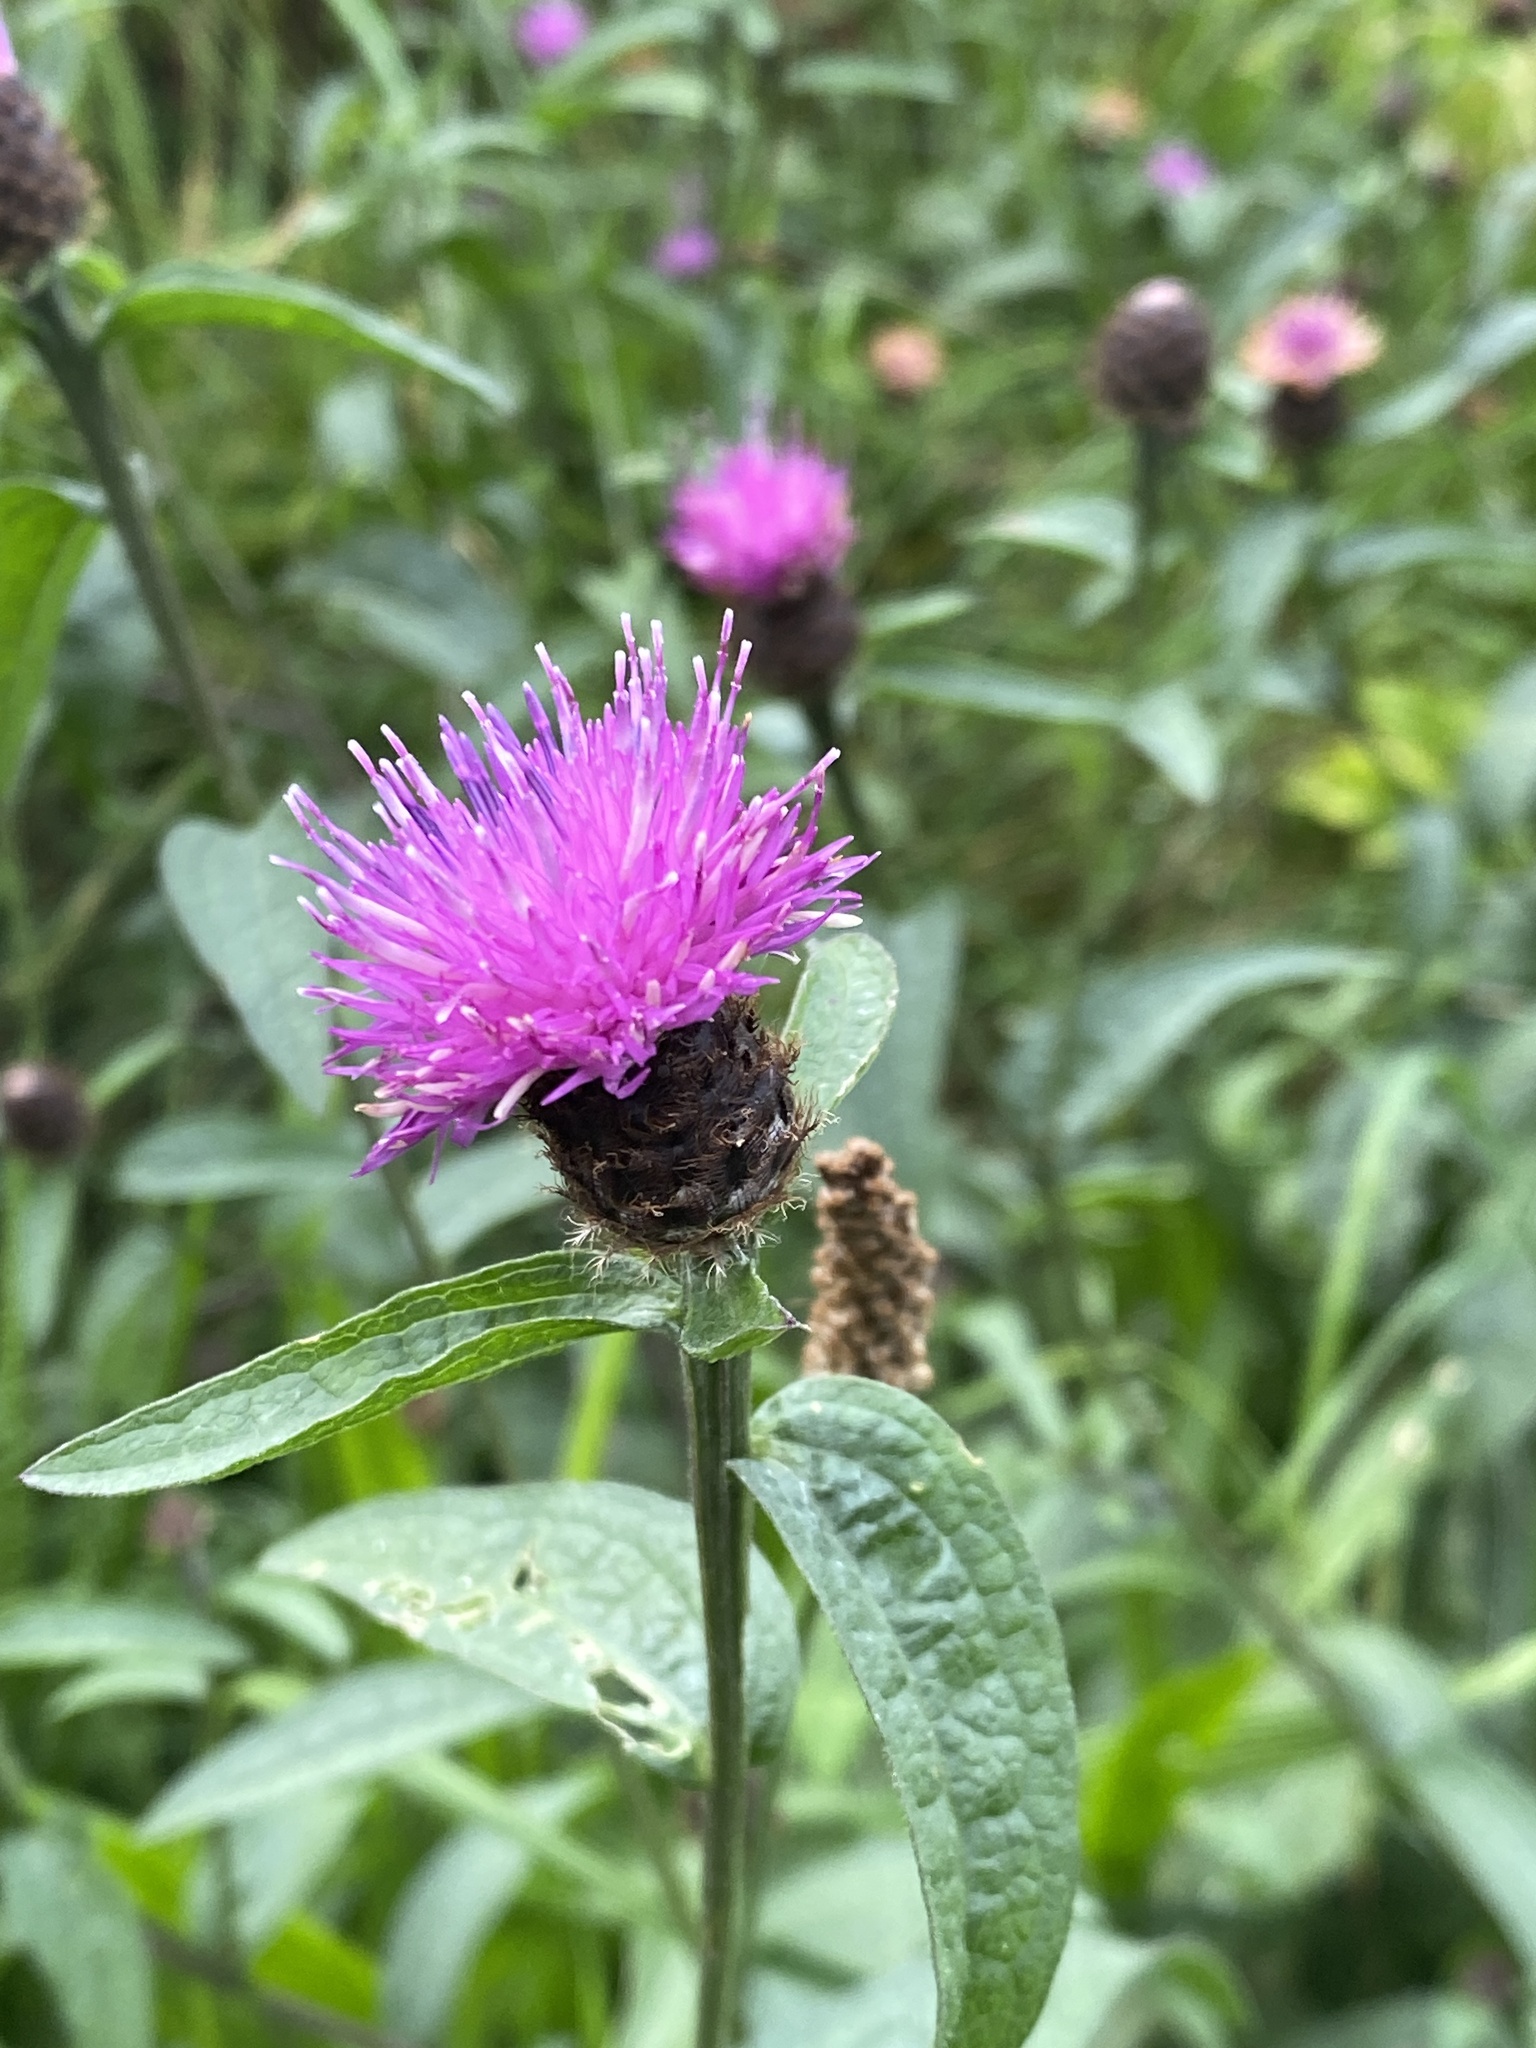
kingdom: Plantae
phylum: Tracheophyta
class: Magnoliopsida
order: Asterales
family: Asteraceae
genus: Centaurea
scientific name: Centaurea nigra
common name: Lesser knapweed
